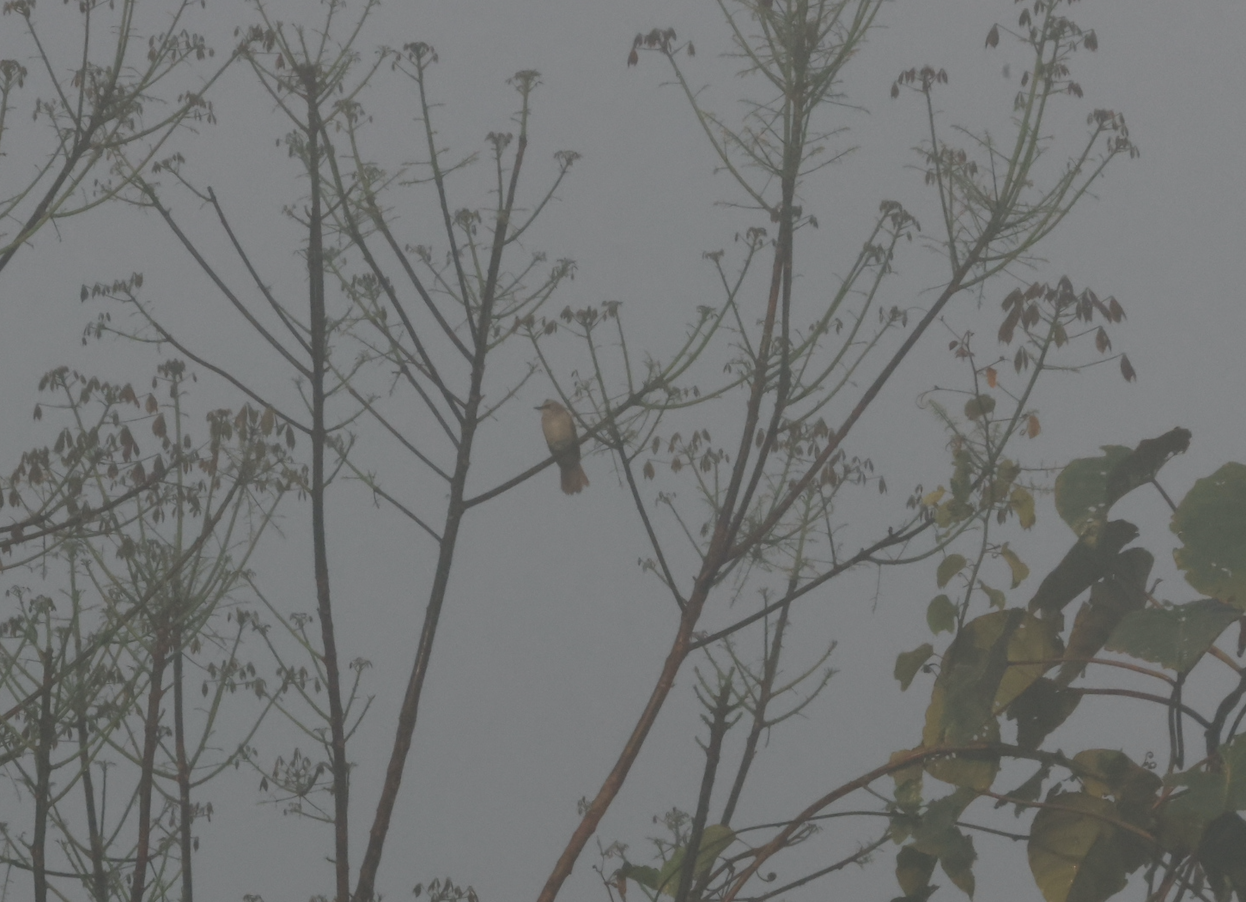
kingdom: Animalia
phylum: Chordata
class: Aves
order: Passeriformes
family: Pycnonotidae
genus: Pycnonotus
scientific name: Pycnonotus goiavier
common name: Yellow-vented bulbul
